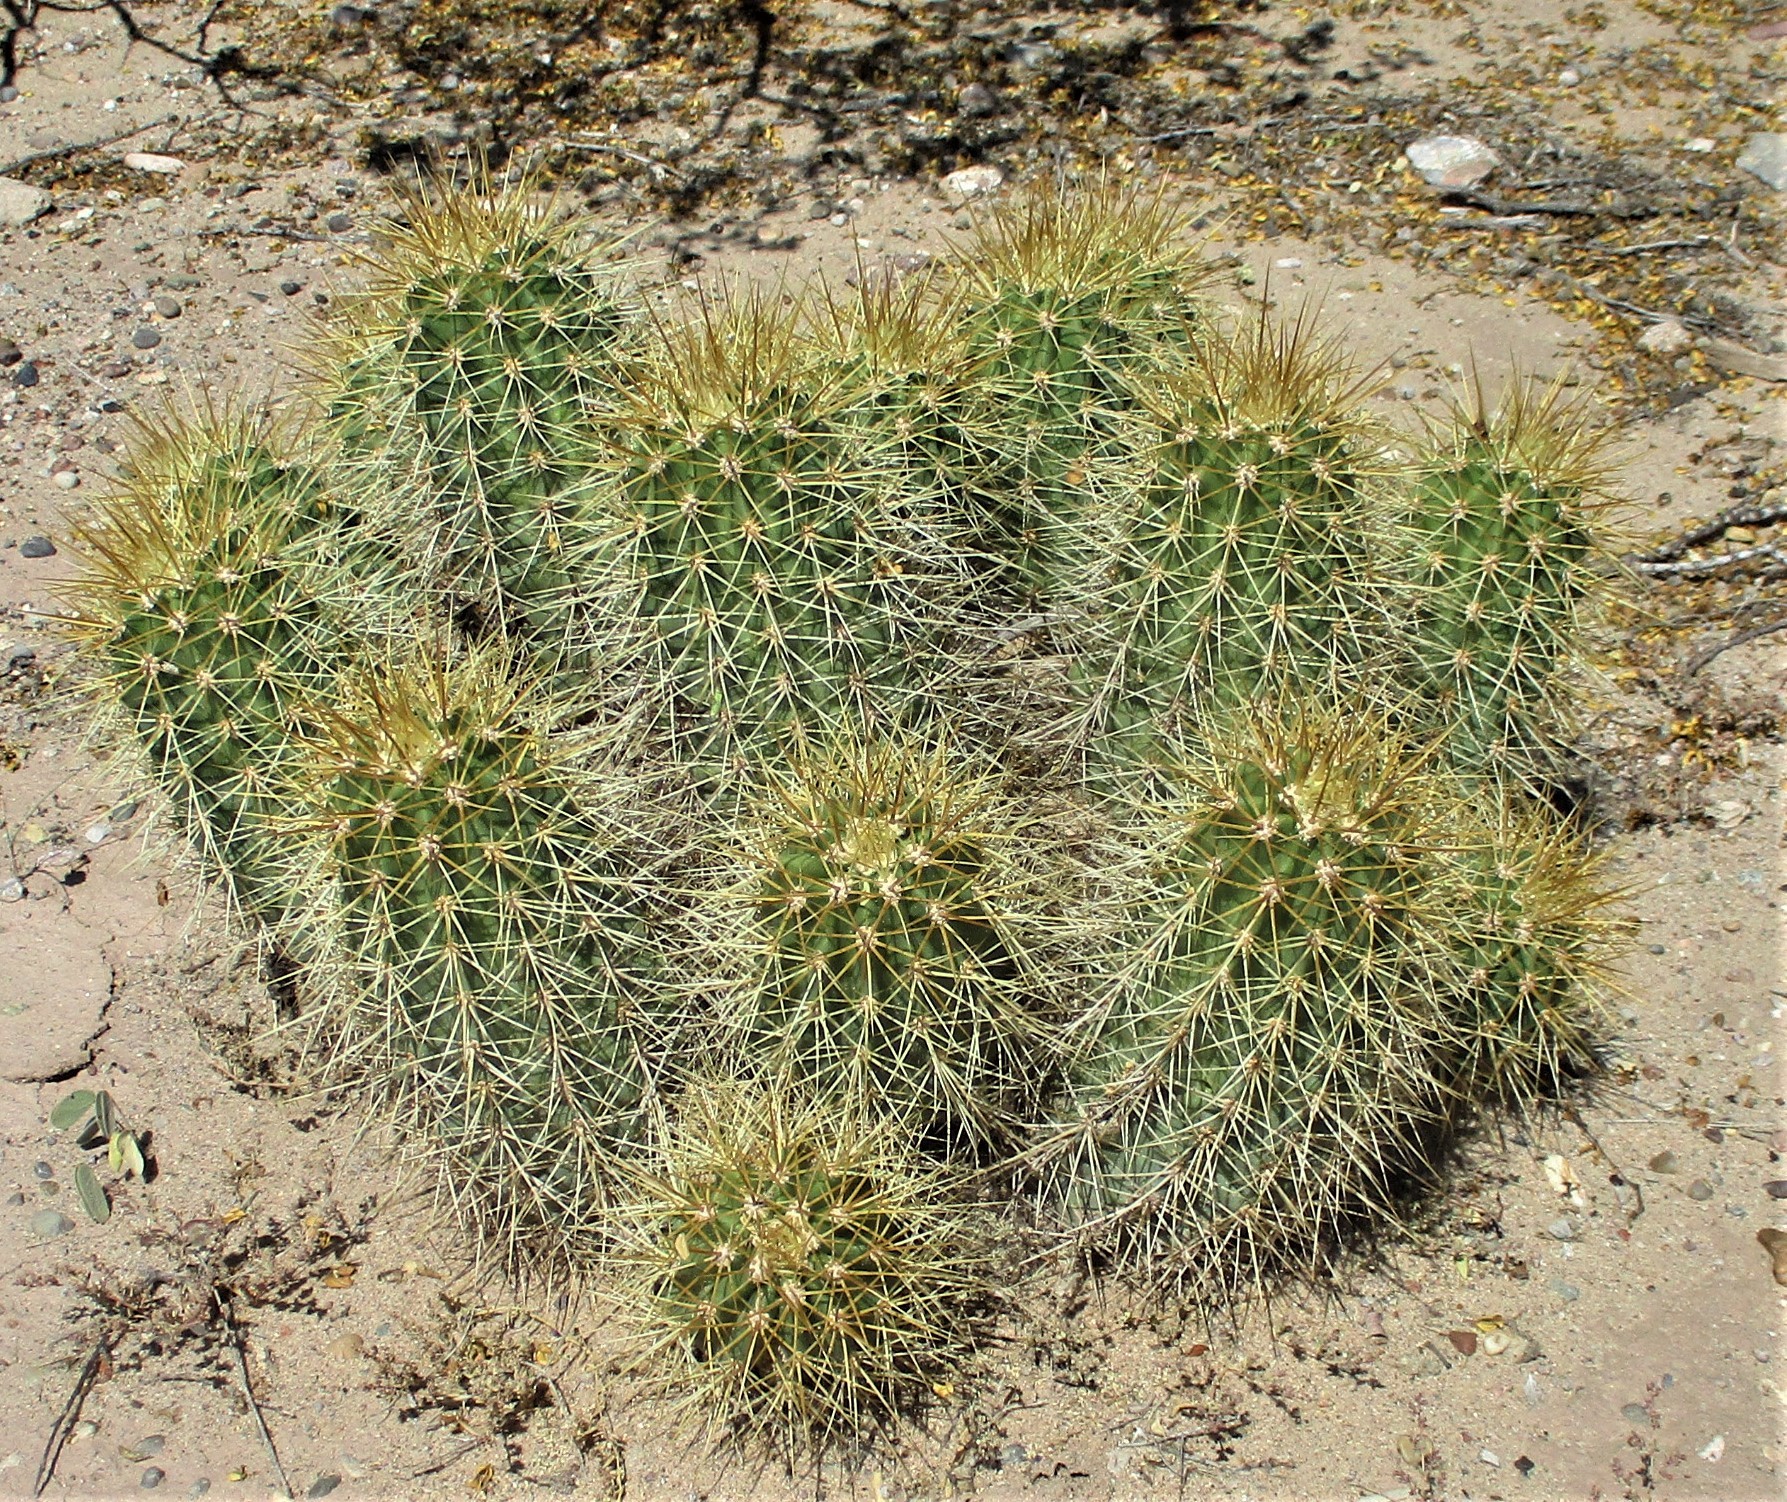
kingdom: Plantae
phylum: Tracheophyta
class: Magnoliopsida
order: Caryophyllales
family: Cactaceae
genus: Echinocereus
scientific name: Echinocereus coccineus
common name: Scarlet hedgehog cactus
